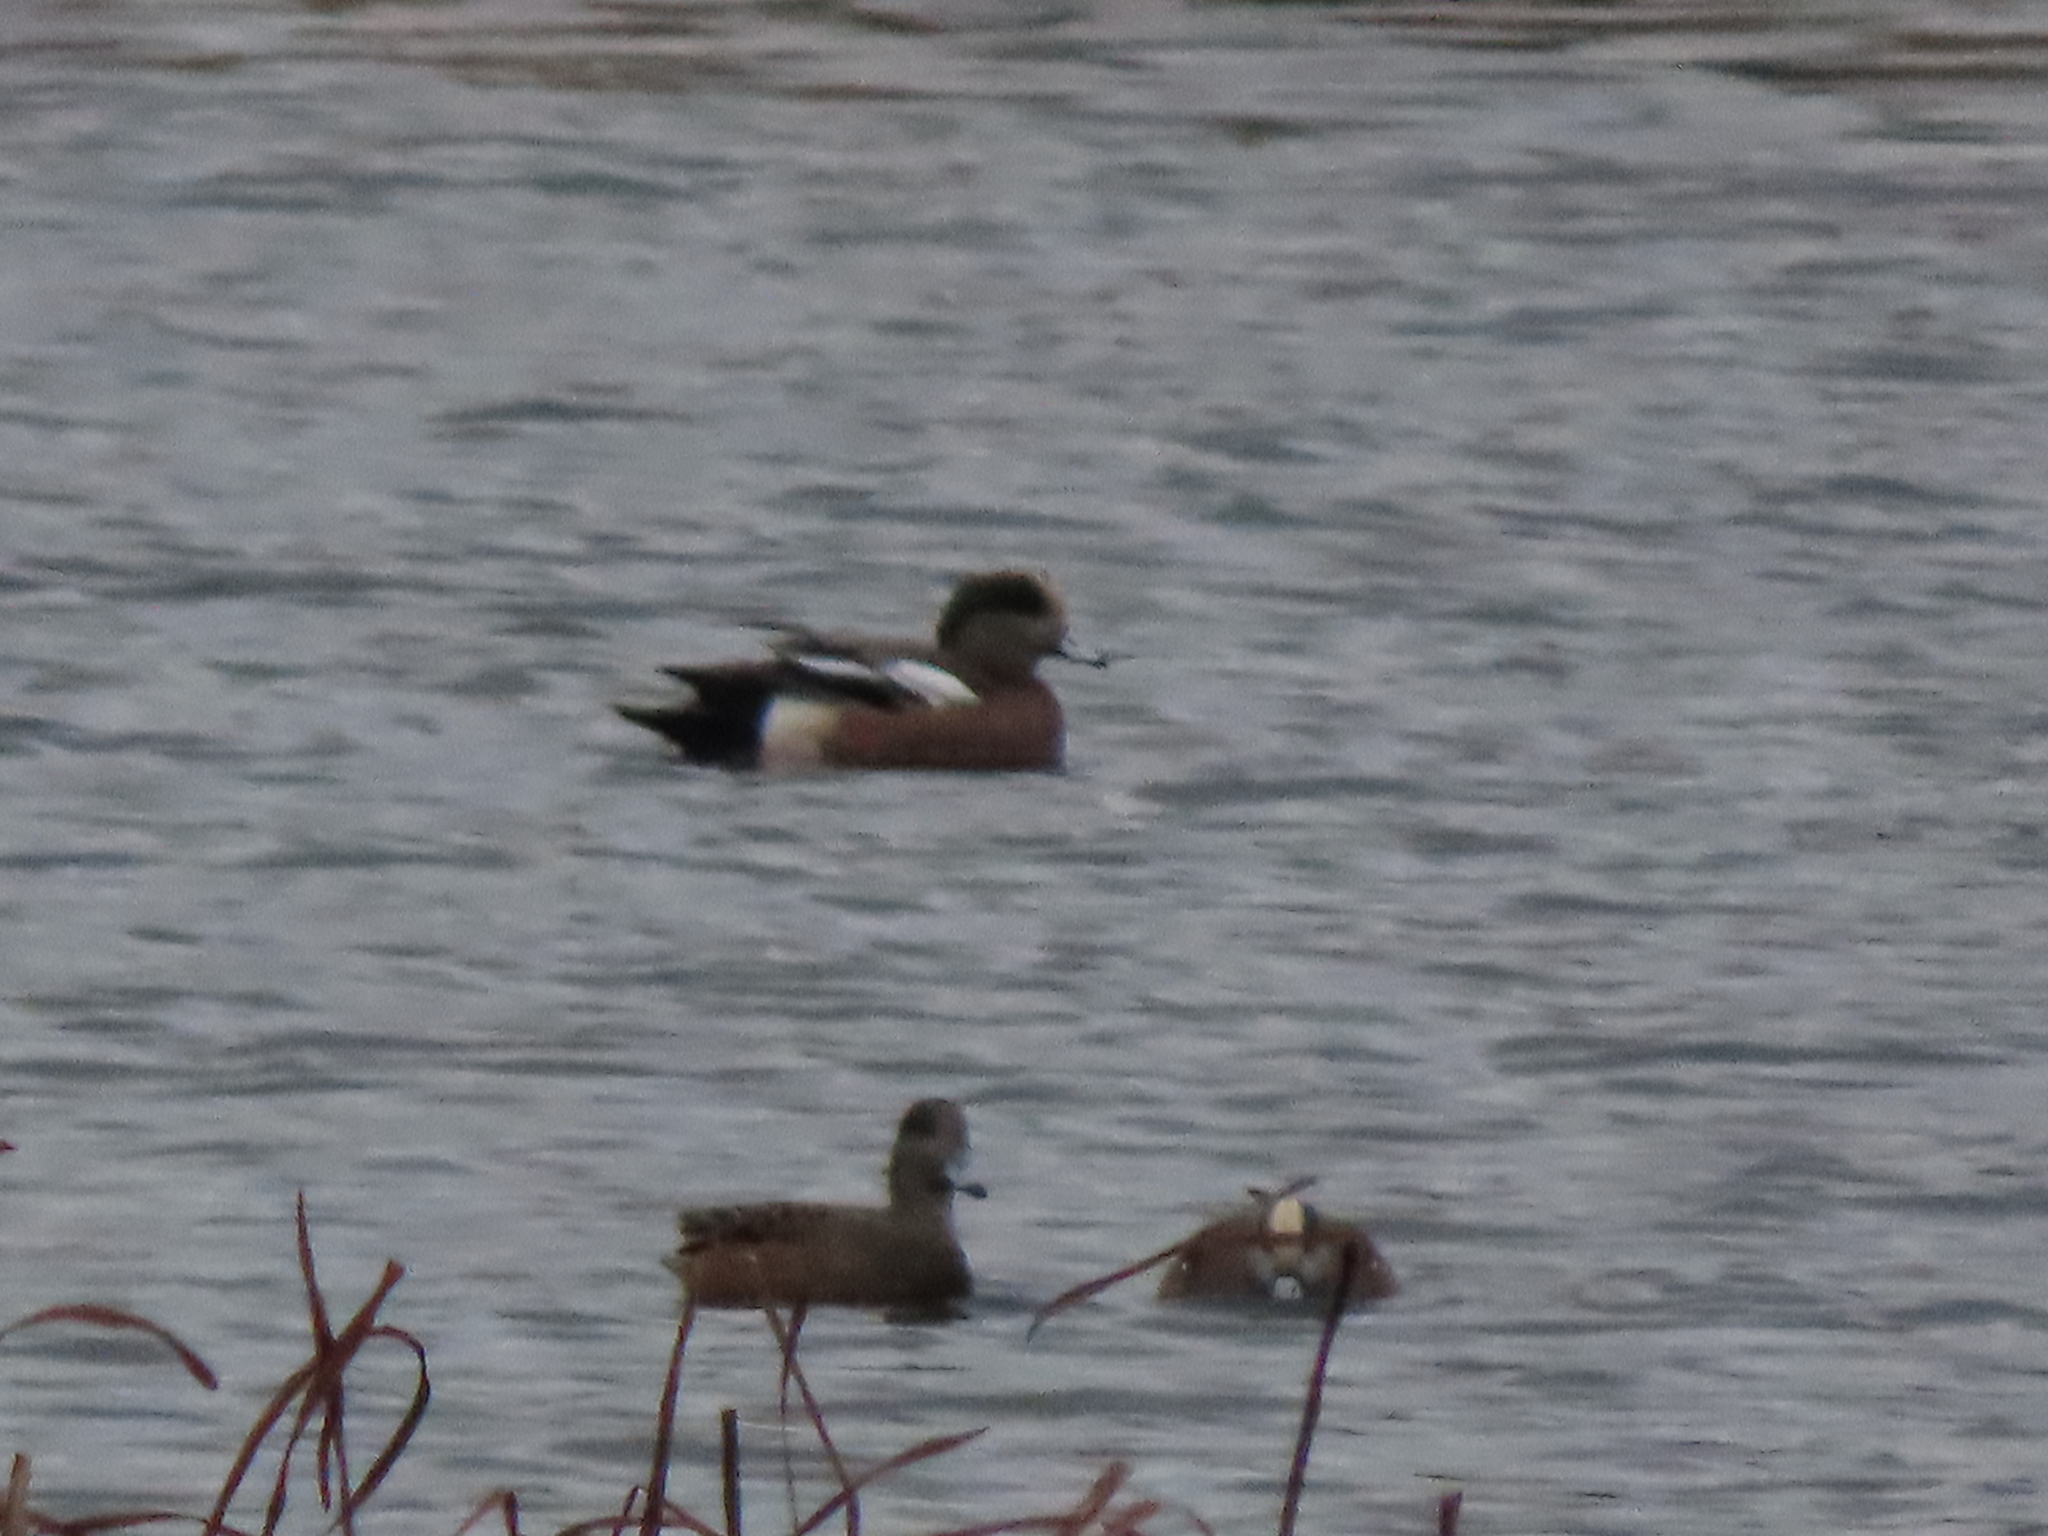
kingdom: Animalia
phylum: Chordata
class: Aves
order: Anseriformes
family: Anatidae
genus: Mareca
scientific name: Mareca americana
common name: American wigeon
